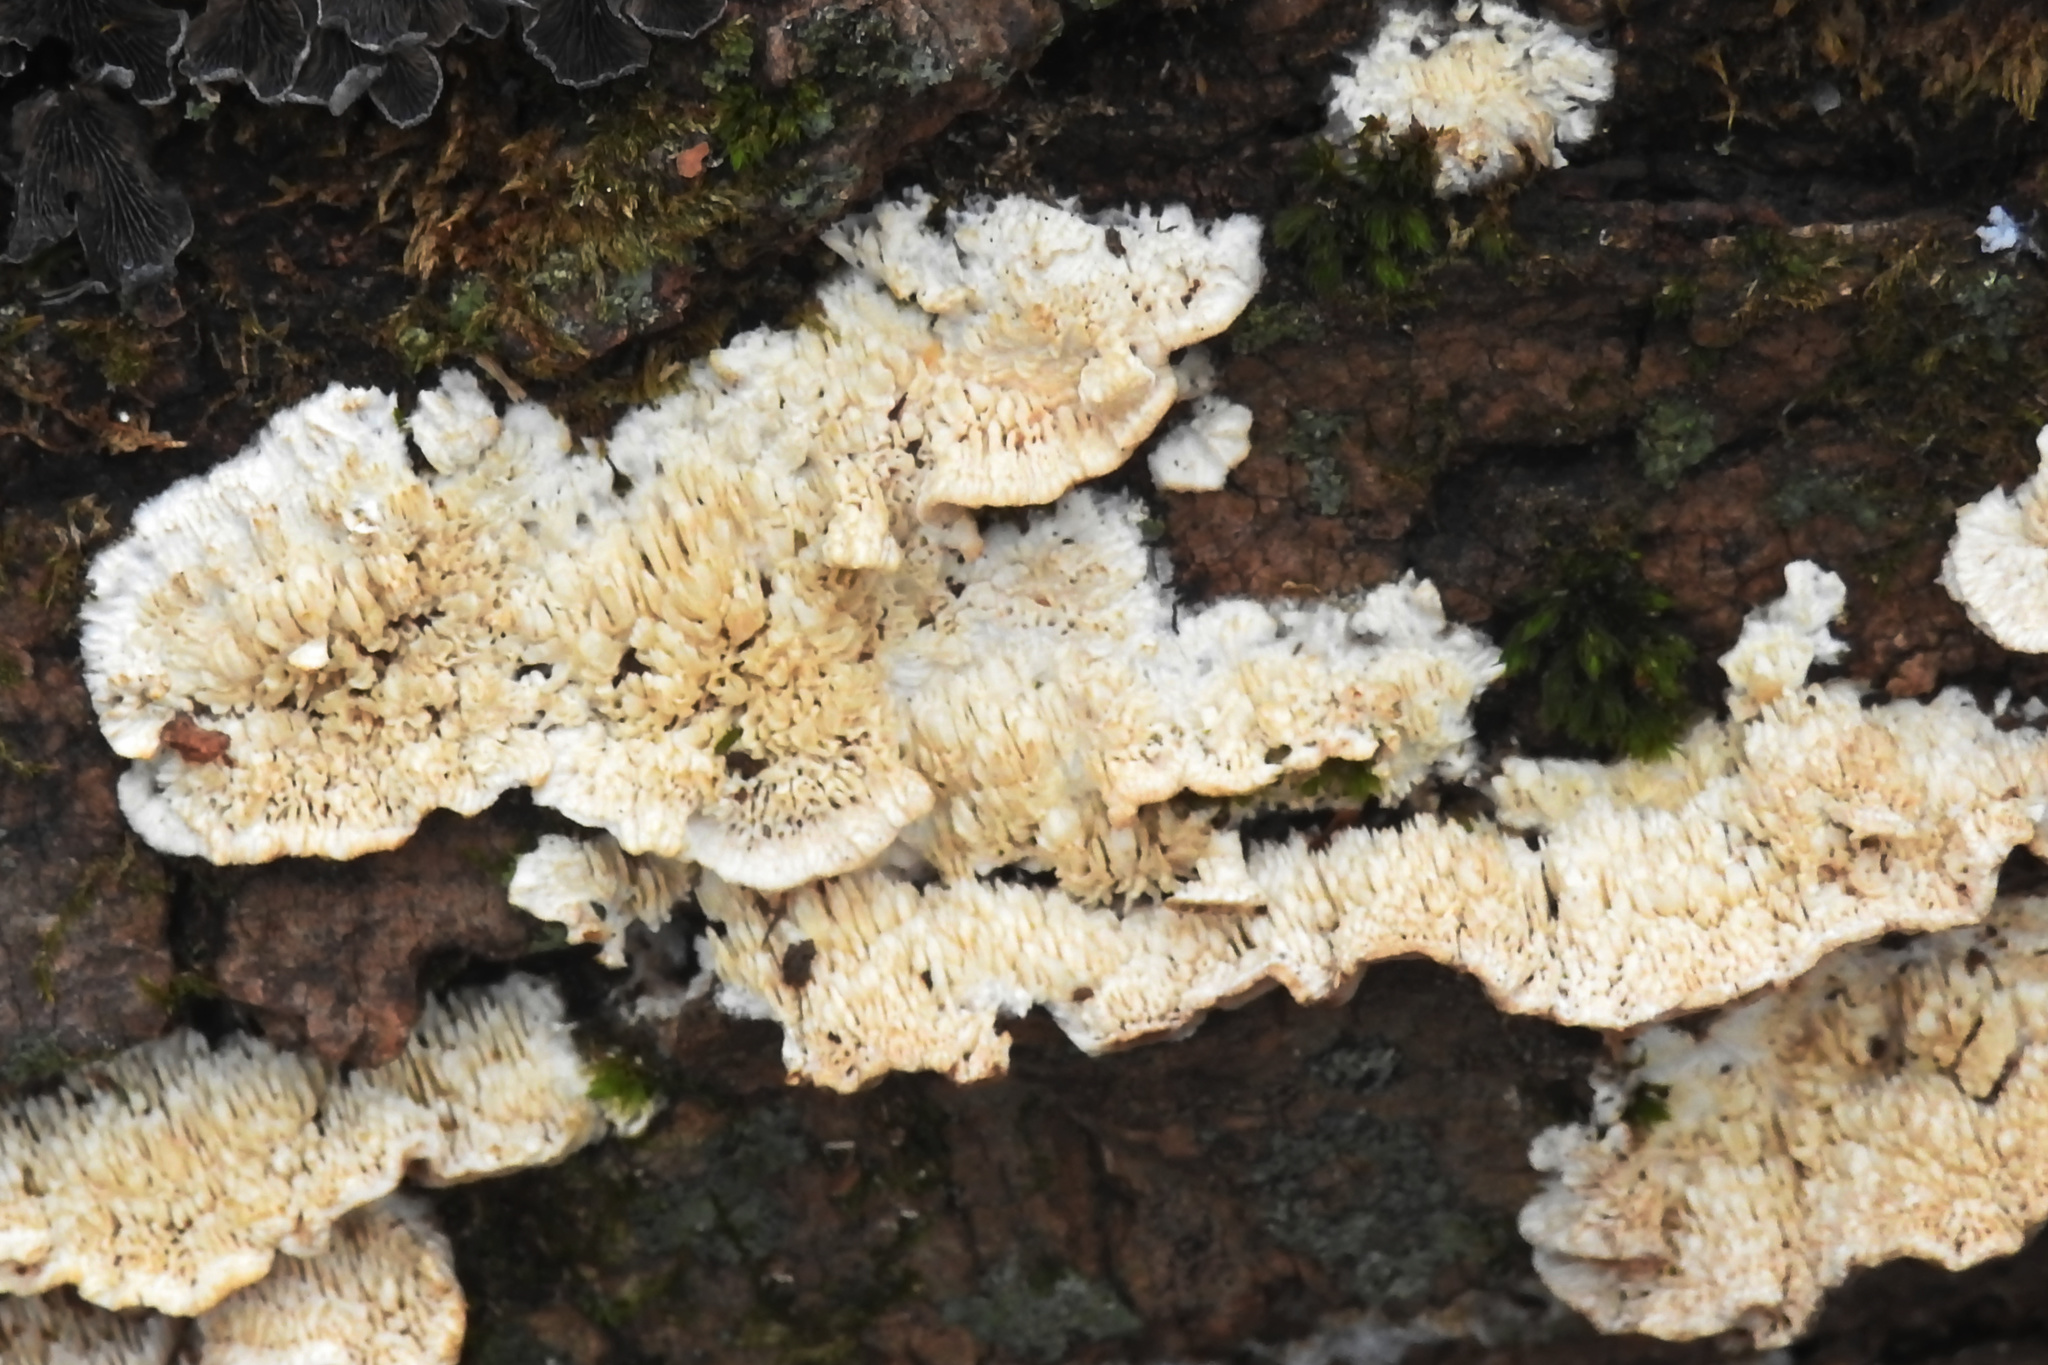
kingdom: Fungi
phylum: Basidiomycota
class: Agaricomycetes
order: Polyporales
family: Irpicaceae
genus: Trametopsis
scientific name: Trametopsis cervina
